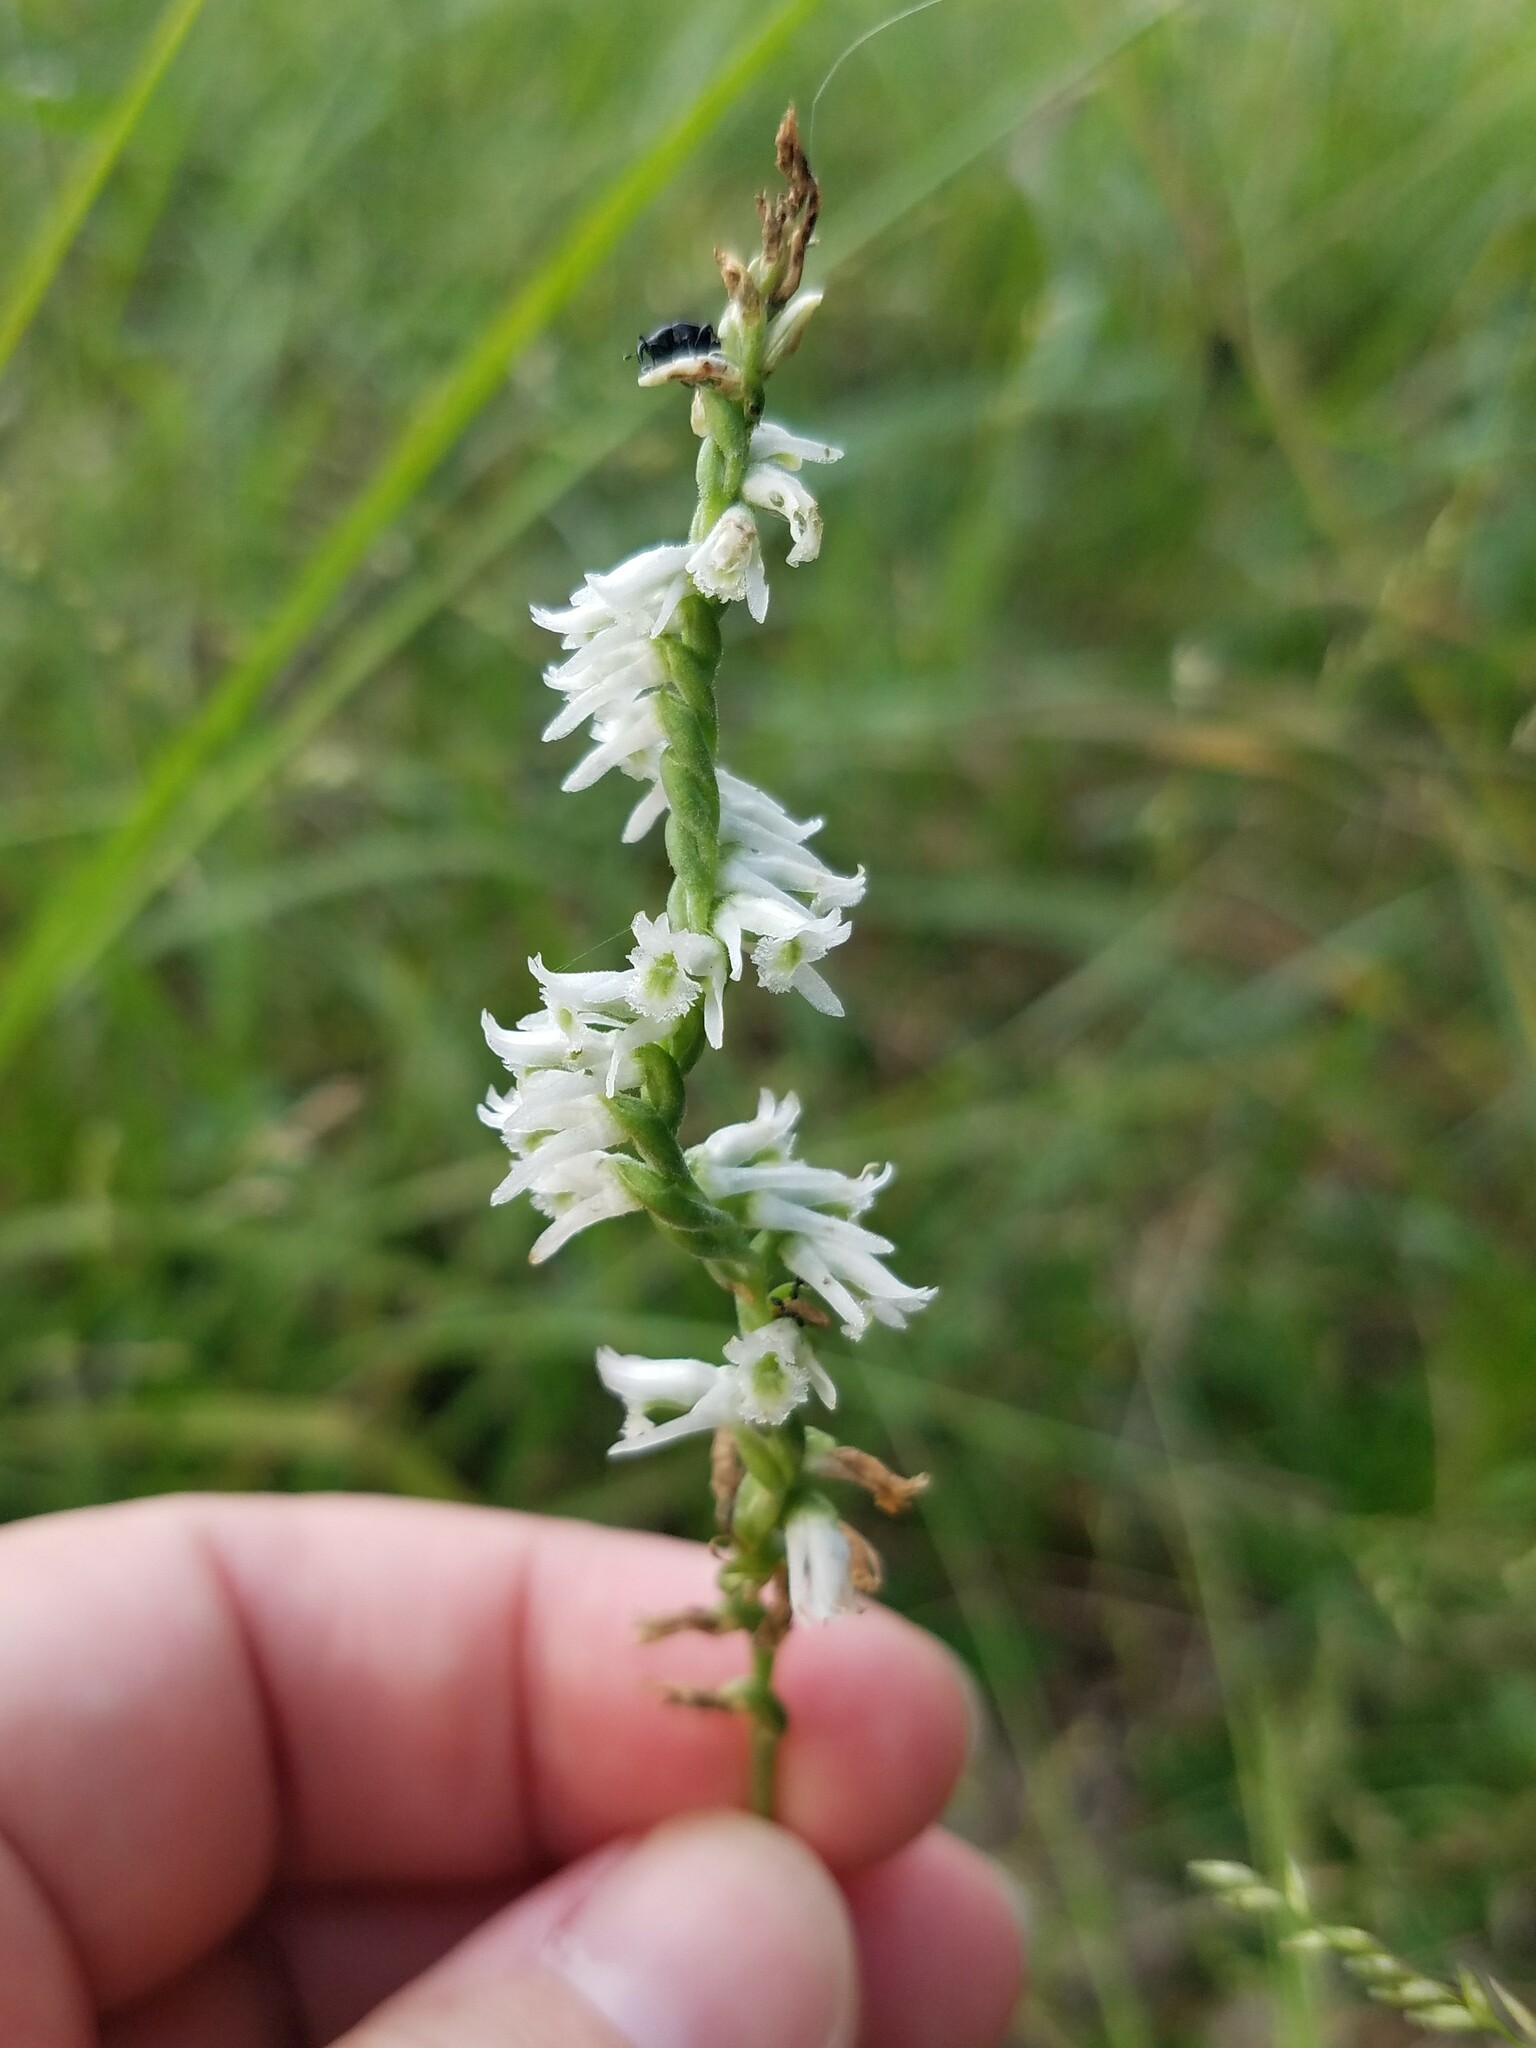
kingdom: Plantae
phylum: Tracheophyta
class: Liliopsida
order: Asparagales
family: Orchidaceae
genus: Spiranthes
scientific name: Spiranthes lacera
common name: Northern slender ladies'-tresses
